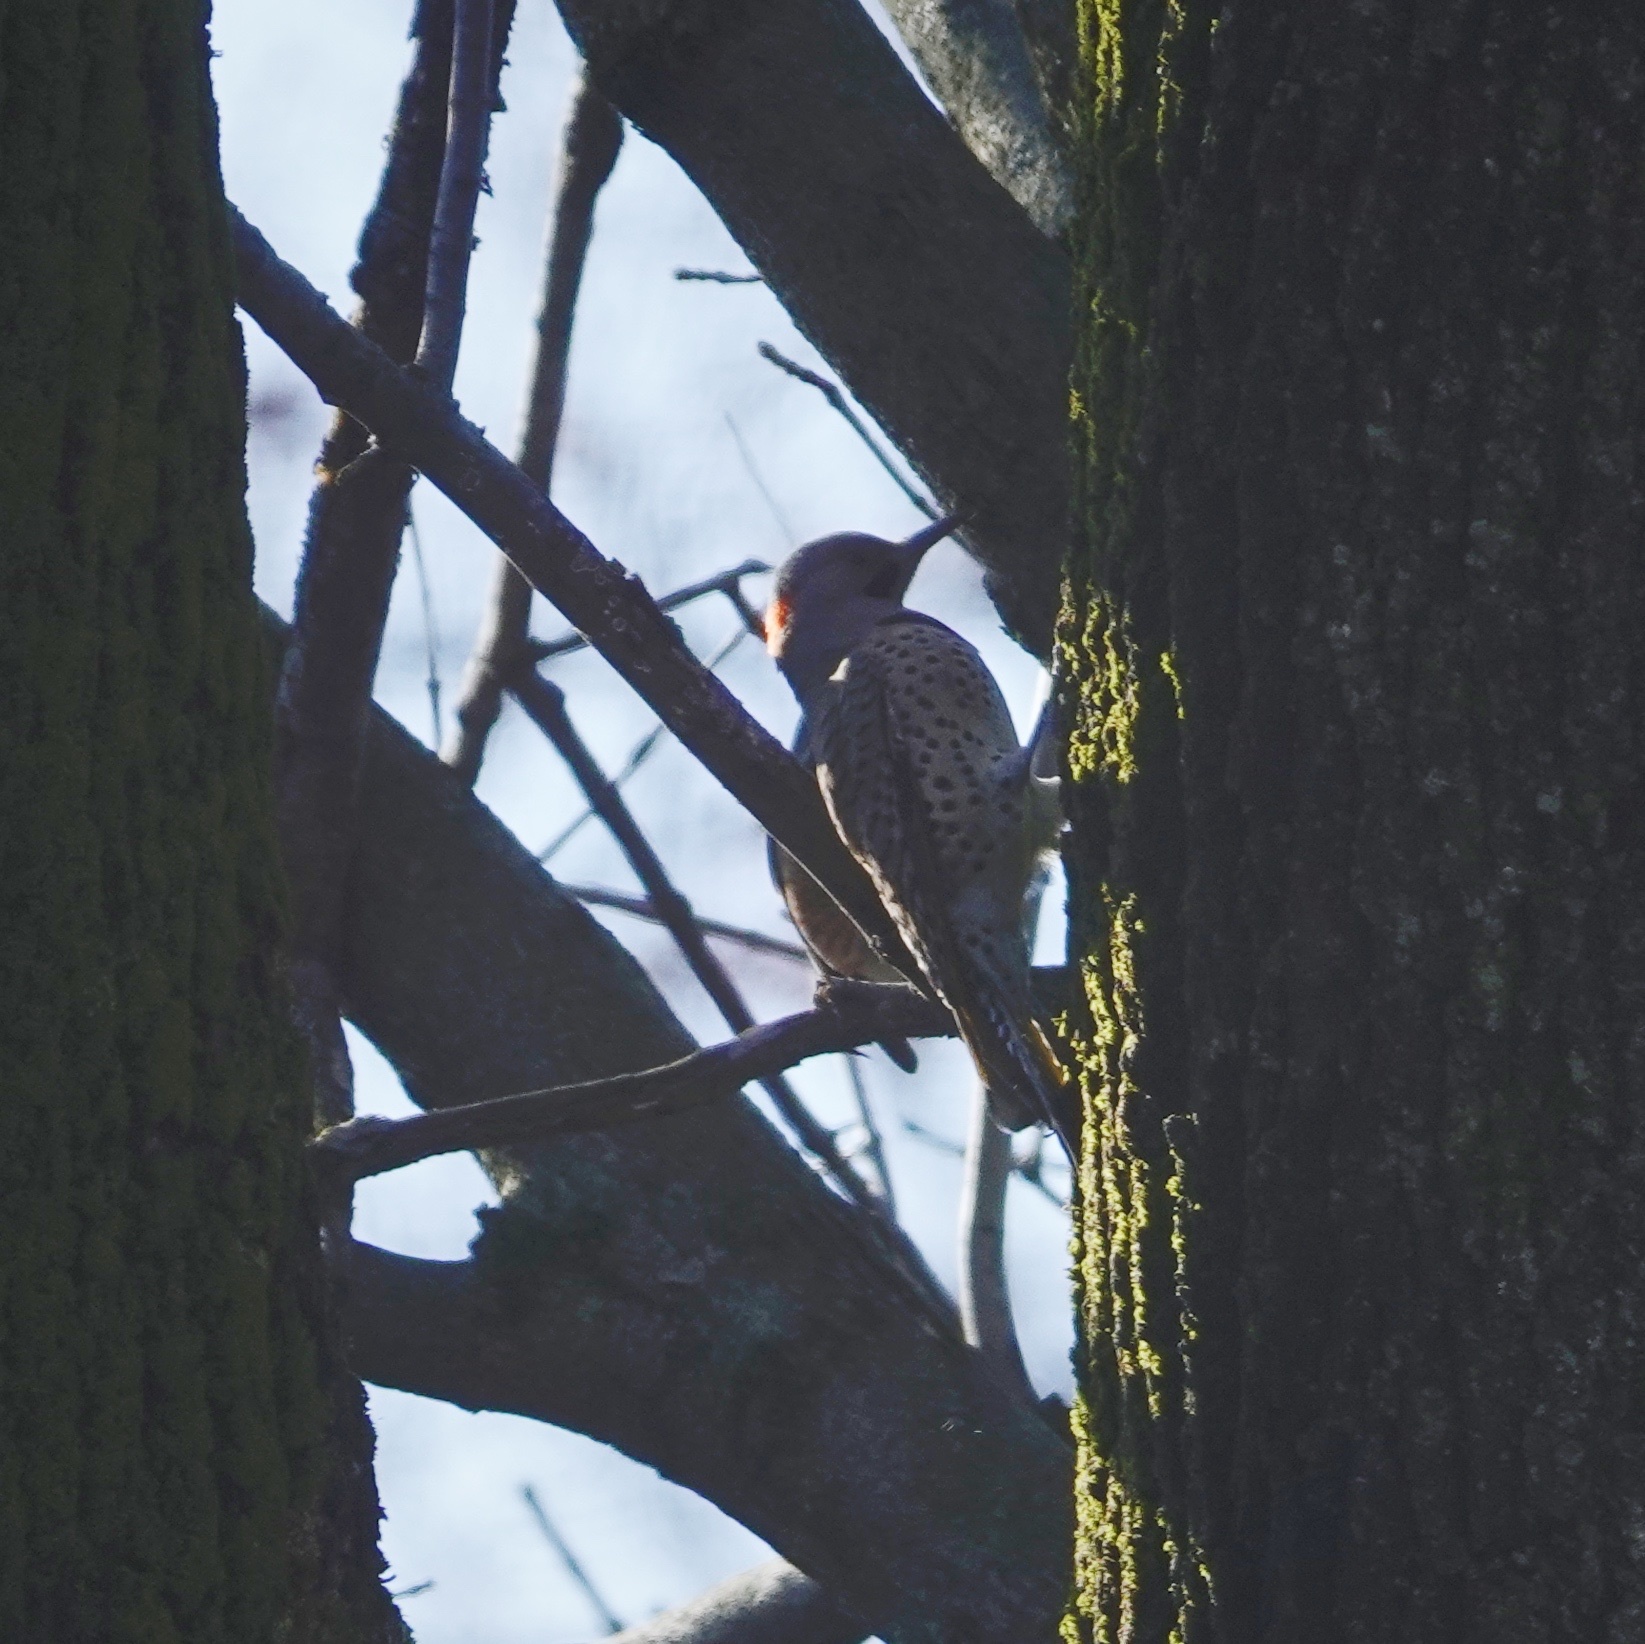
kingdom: Animalia
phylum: Chordata
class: Aves
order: Piciformes
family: Picidae
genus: Colaptes
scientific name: Colaptes auratus
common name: Northern flicker
